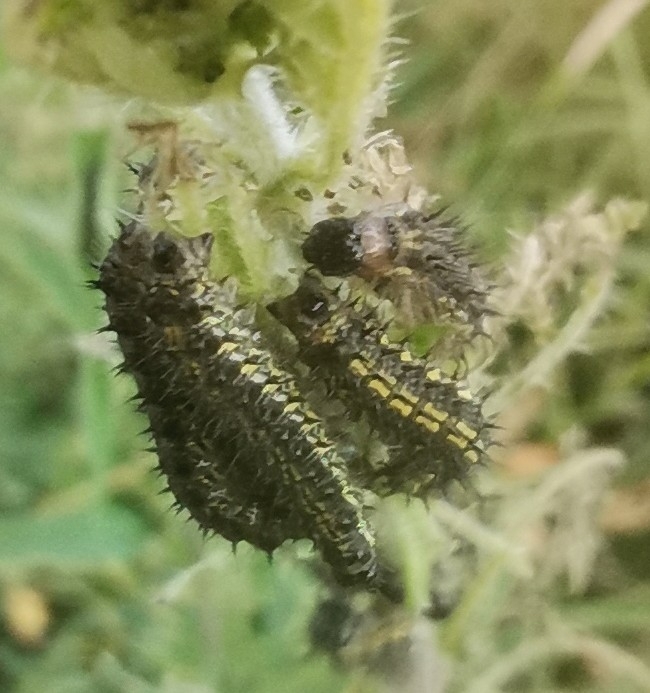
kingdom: Animalia
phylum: Arthropoda
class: Insecta
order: Lepidoptera
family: Nymphalidae
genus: Aglais
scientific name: Aglais urticae
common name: Small tortoiseshell
